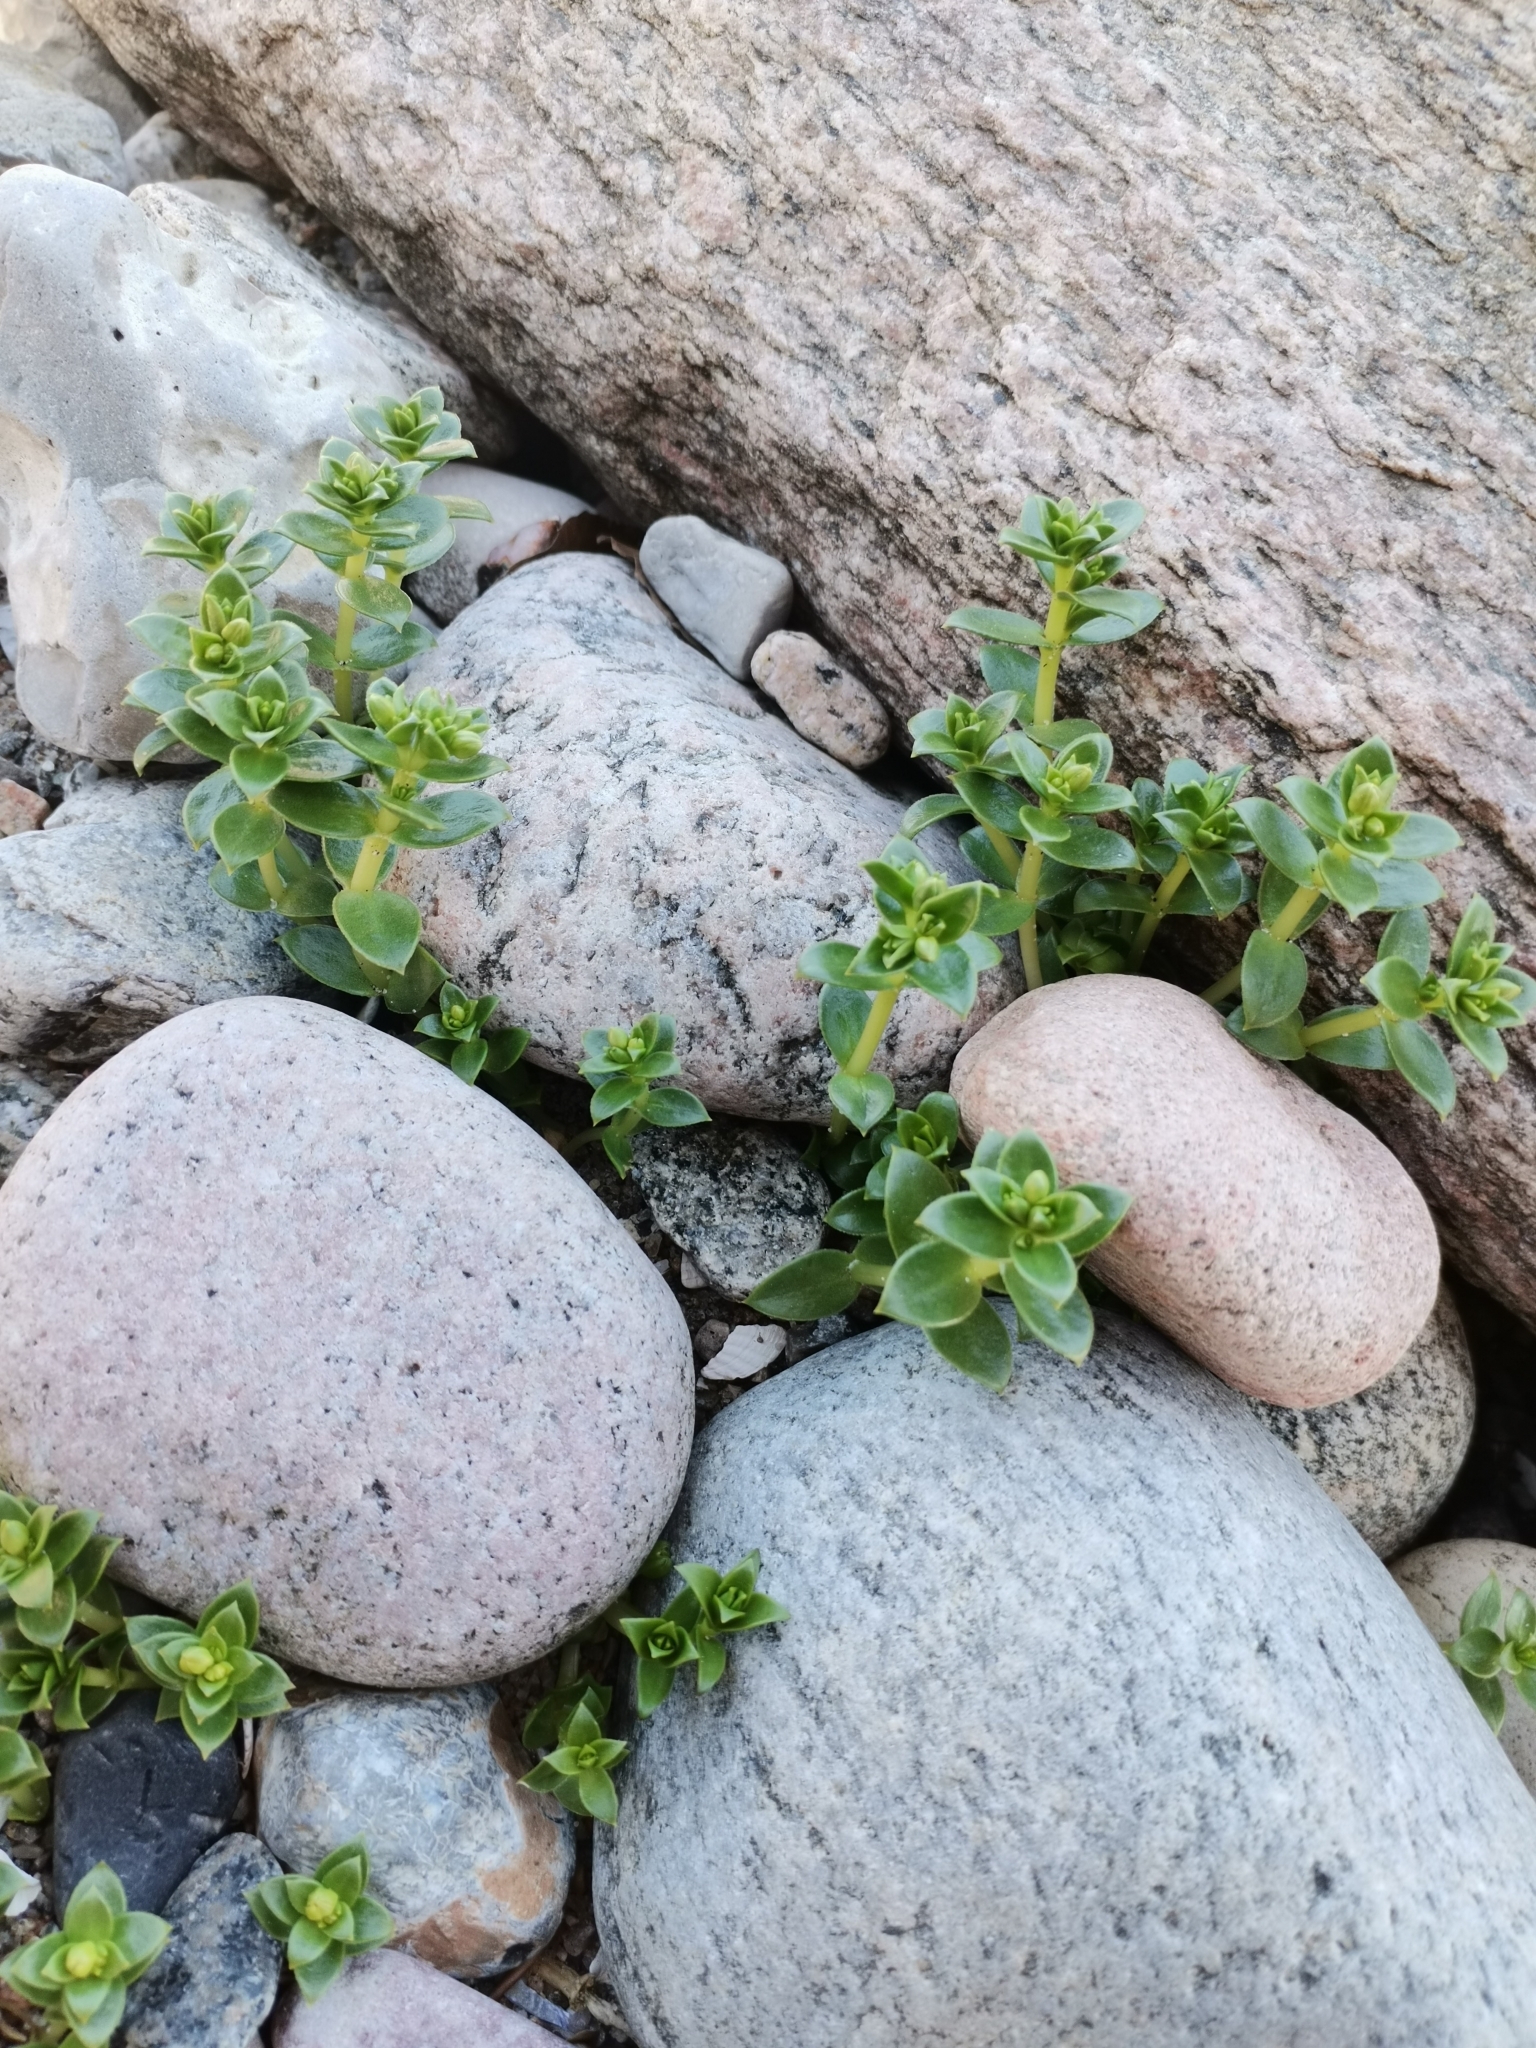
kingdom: Plantae
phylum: Tracheophyta
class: Magnoliopsida
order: Caryophyllales
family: Caryophyllaceae
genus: Honckenya
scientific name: Honckenya peploides
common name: Sea sandwort
